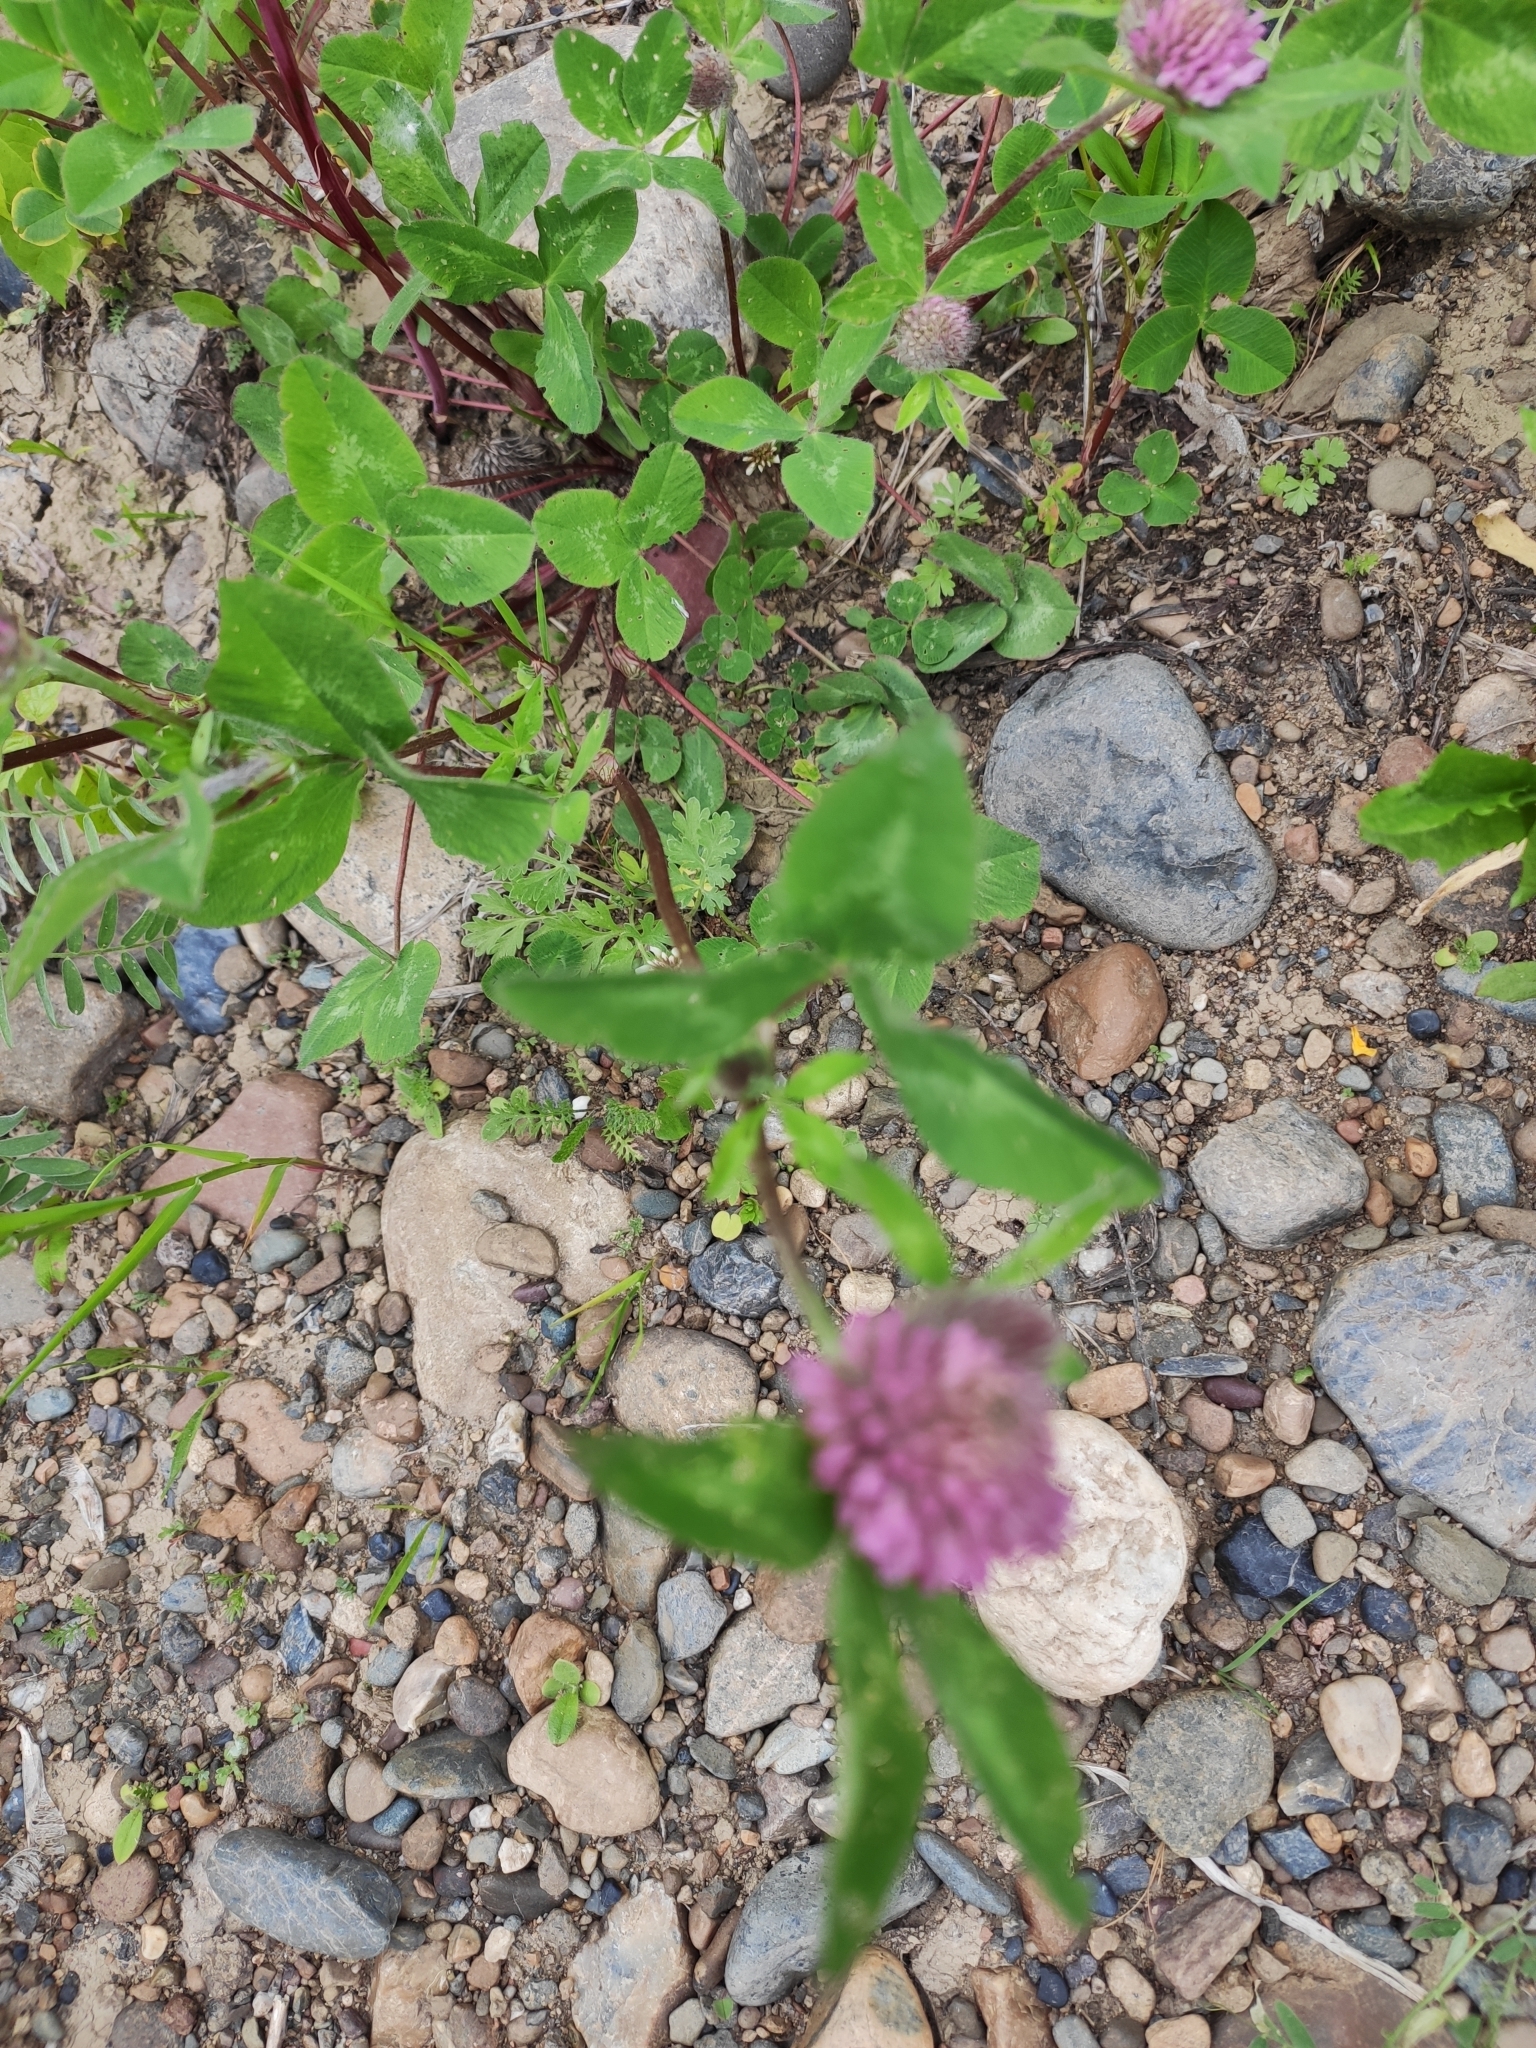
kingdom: Plantae
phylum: Tracheophyta
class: Magnoliopsida
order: Fabales
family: Fabaceae
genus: Trifolium
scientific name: Trifolium pratense
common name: Red clover
